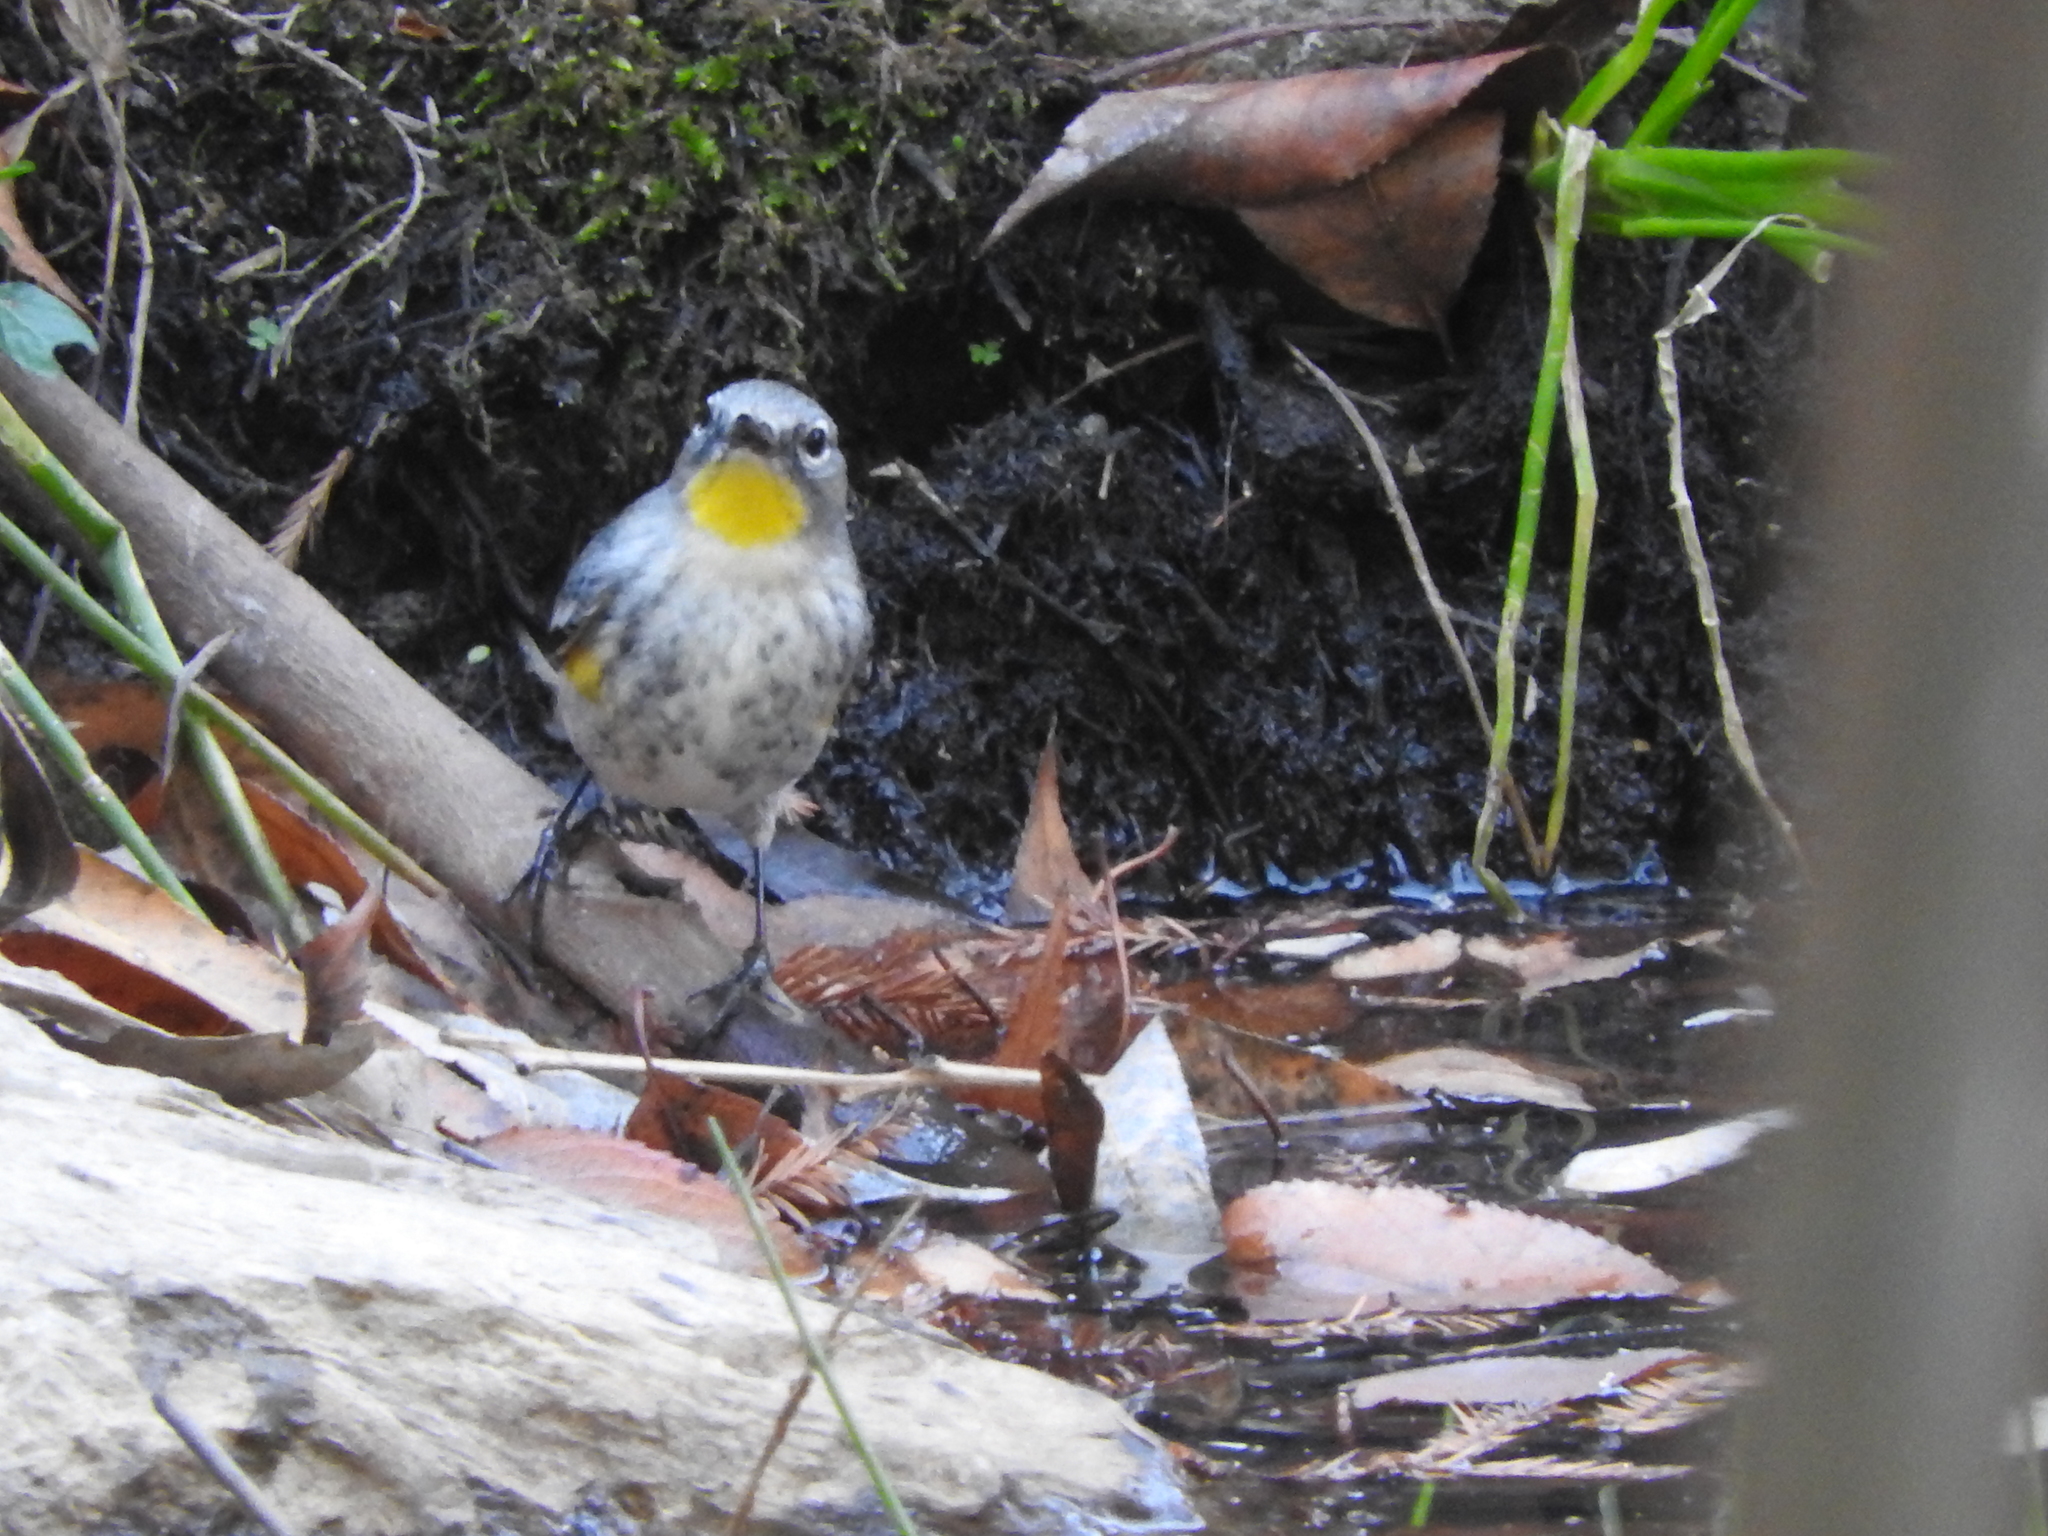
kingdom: Animalia
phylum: Chordata
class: Aves
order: Passeriformes
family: Parulidae
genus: Setophaga
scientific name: Setophaga coronata
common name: Myrtle warbler
